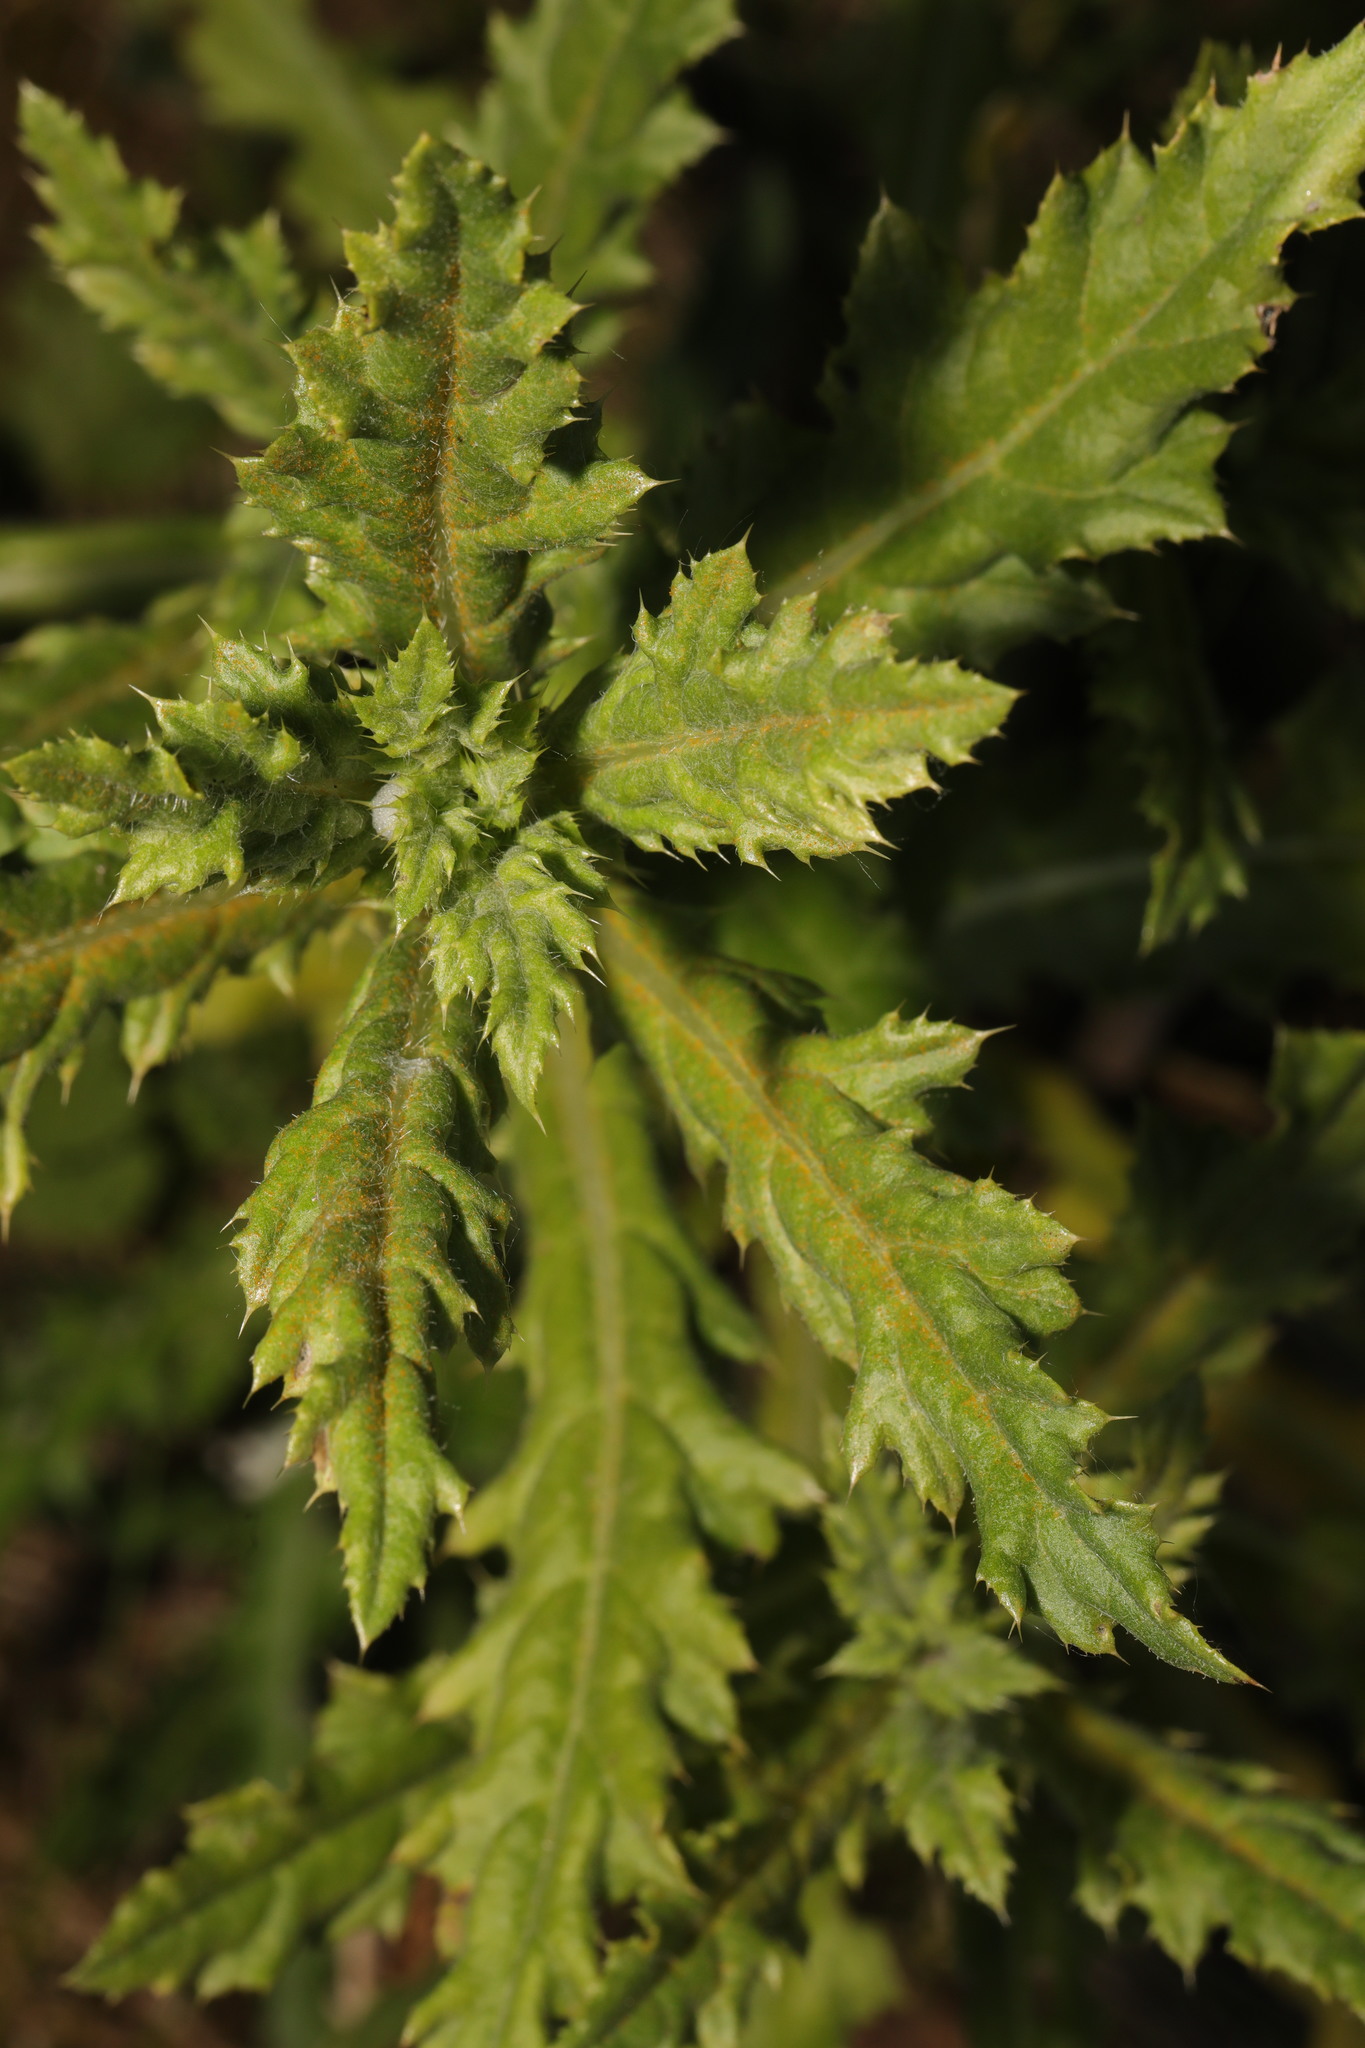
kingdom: Plantae
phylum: Tracheophyta
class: Magnoliopsida
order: Asterales
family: Asteraceae
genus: Cirsium
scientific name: Cirsium arvense
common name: Creeping thistle
